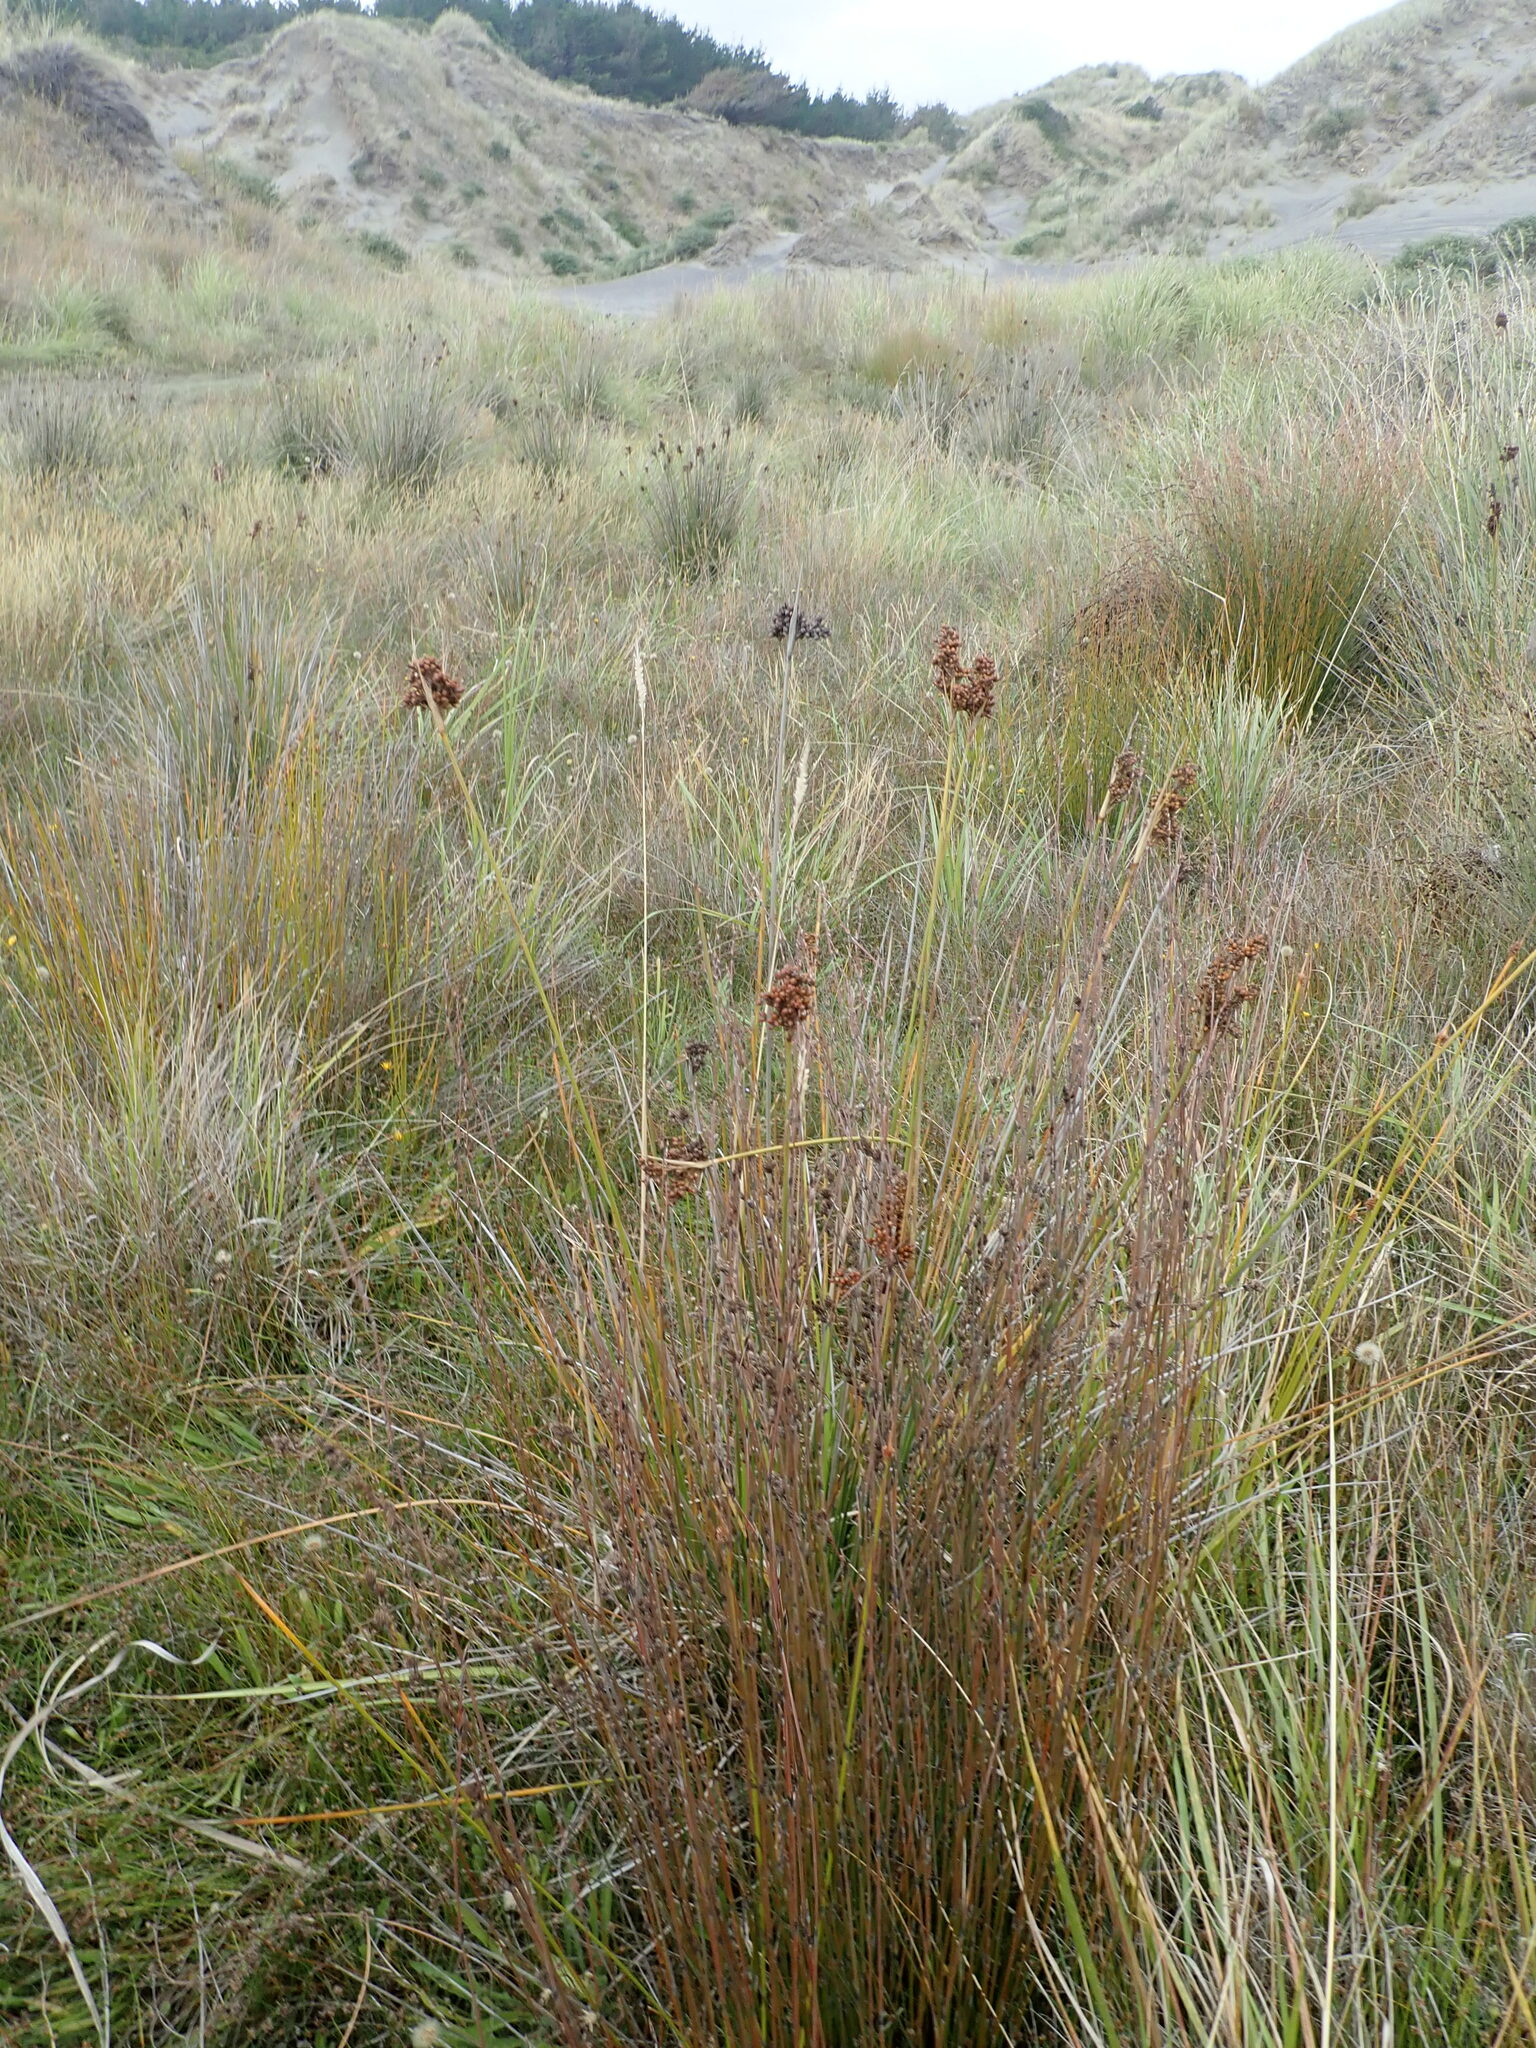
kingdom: Plantae
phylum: Tracheophyta
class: Liliopsida
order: Poales
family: Juncaceae
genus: Juncus
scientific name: Juncus acutus
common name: Sharp rush
